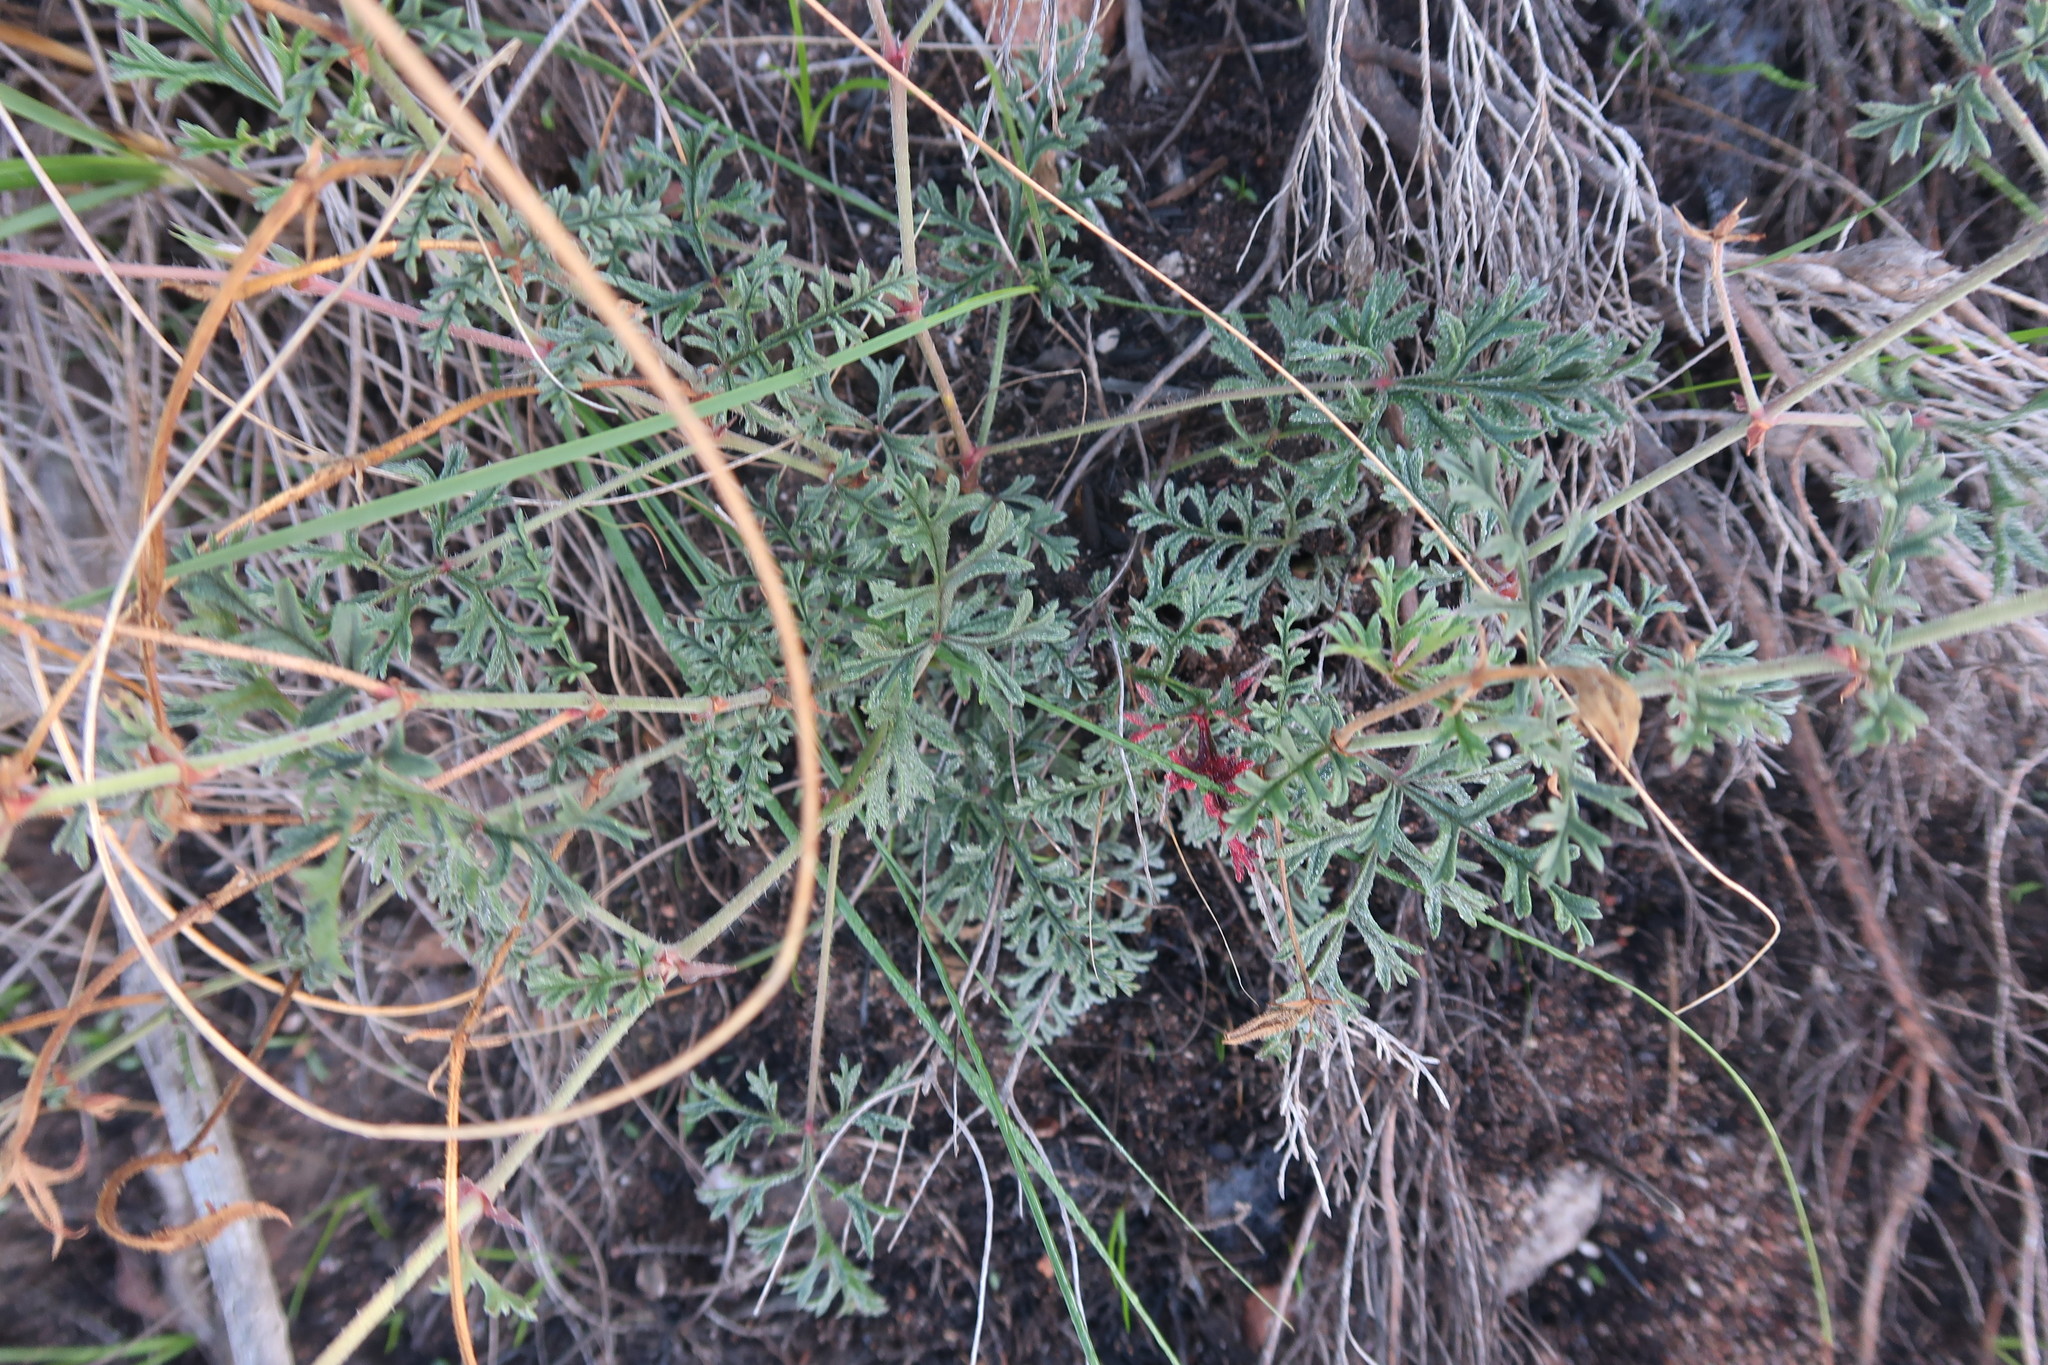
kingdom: Plantae
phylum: Tracheophyta
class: Magnoliopsida
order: Geraniales
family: Geraniaceae
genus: Pelargonium
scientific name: Pelargonium caucalifolium
